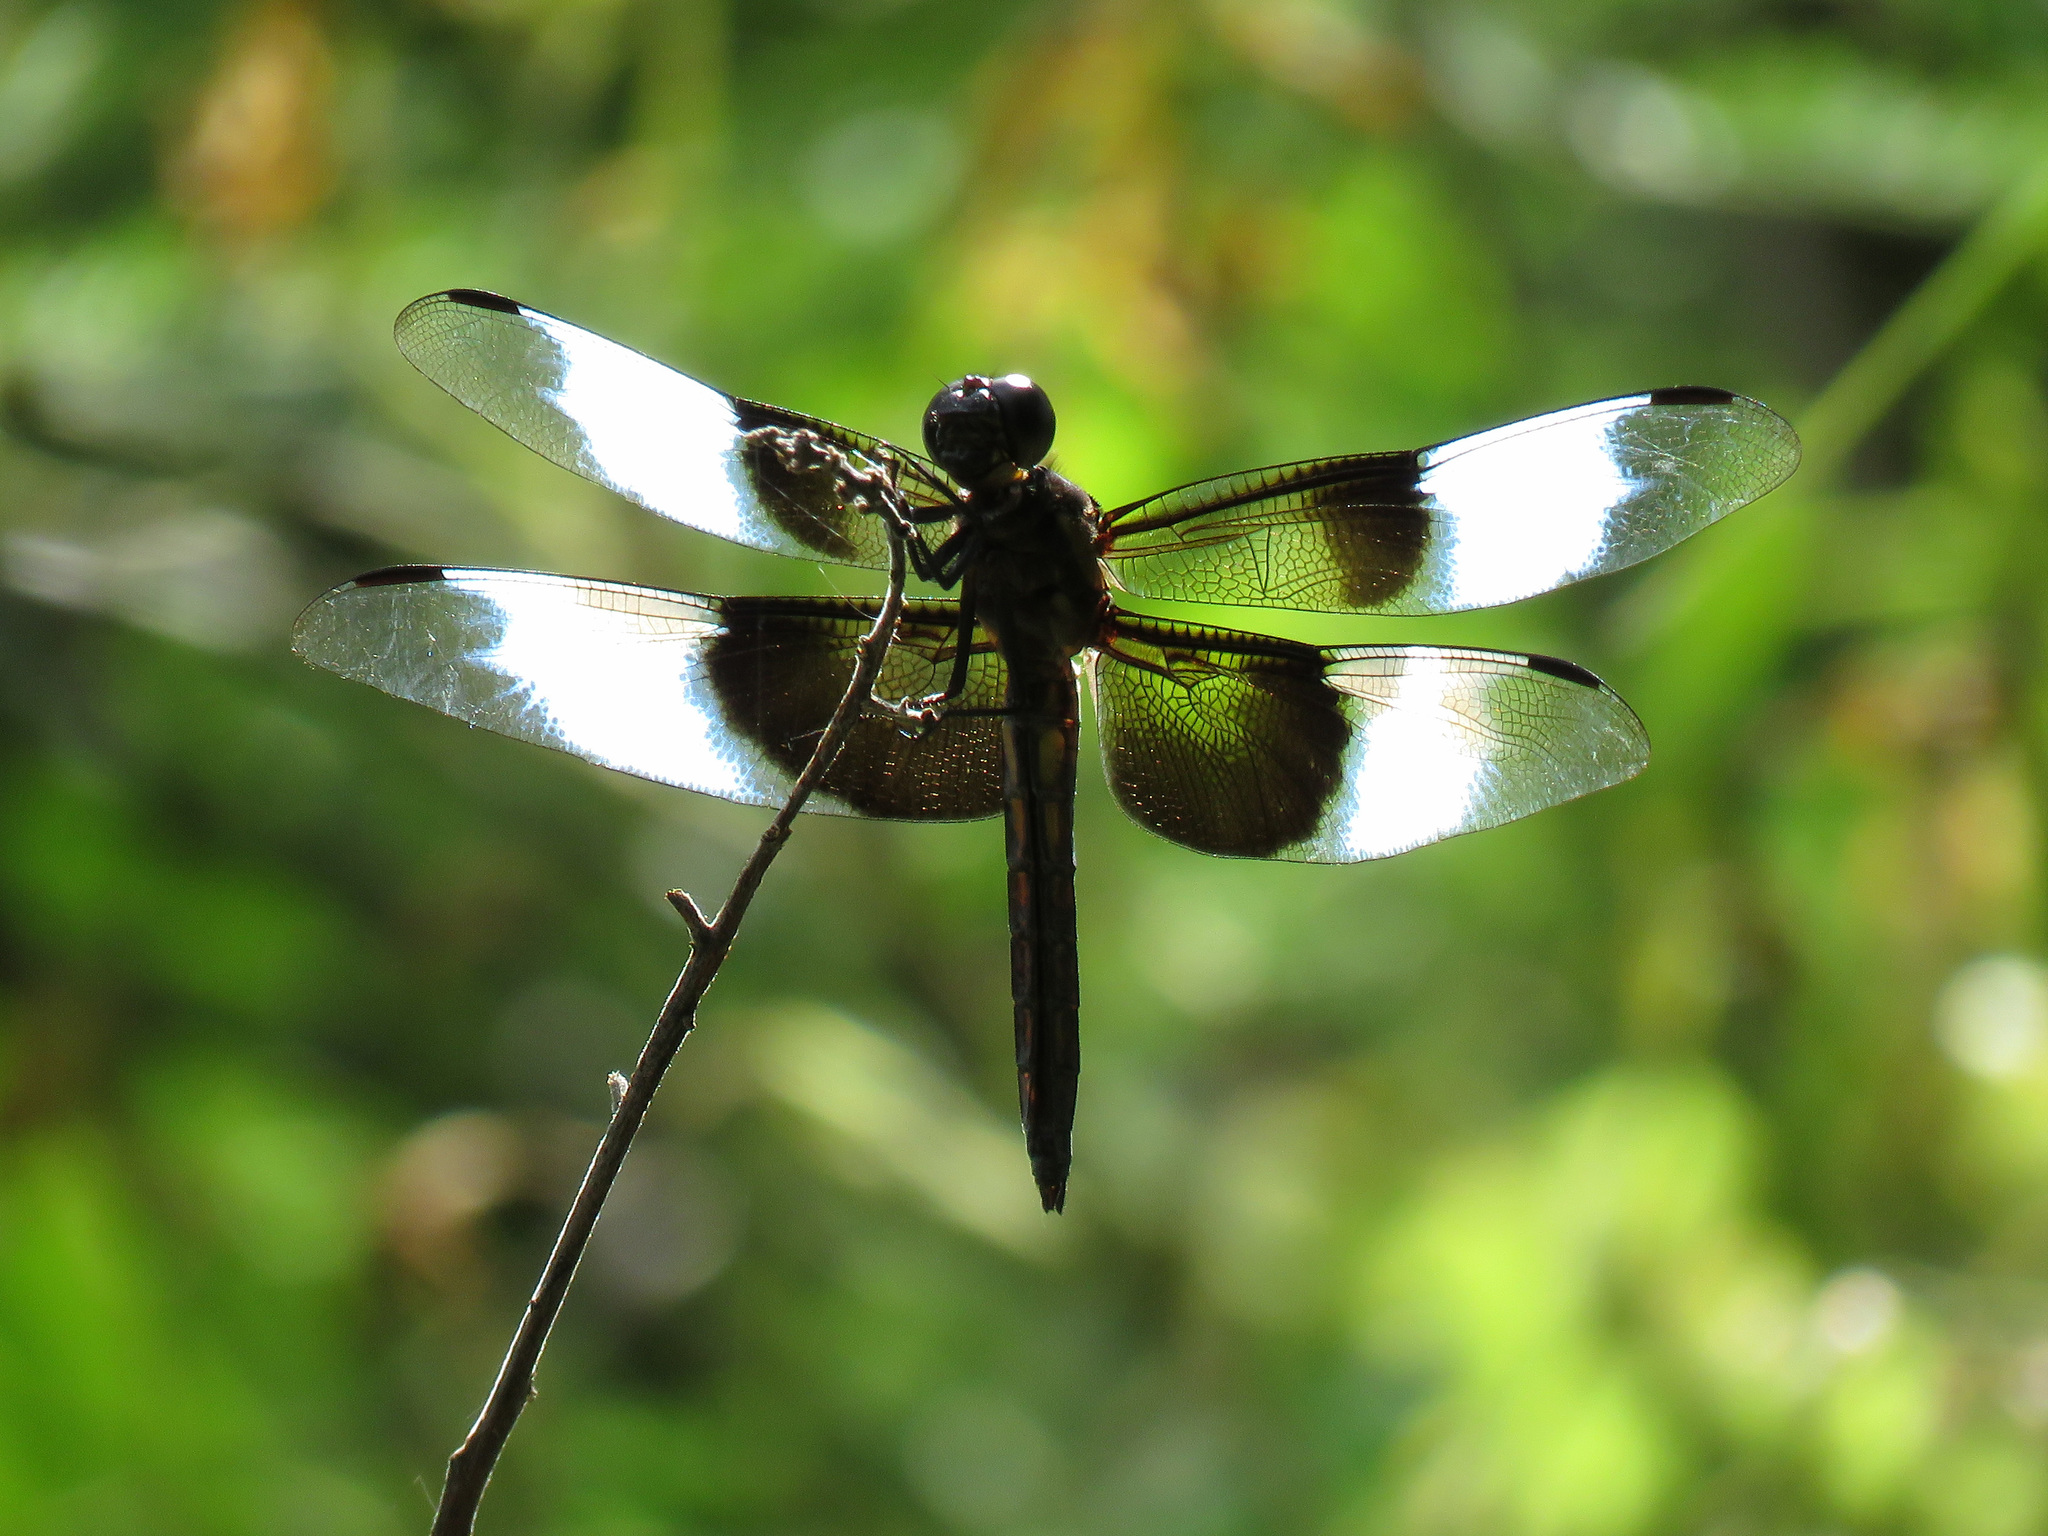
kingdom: Animalia
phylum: Arthropoda
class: Insecta
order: Odonata
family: Libellulidae
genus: Libellula
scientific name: Libellula luctuosa
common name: Widow skimmer
